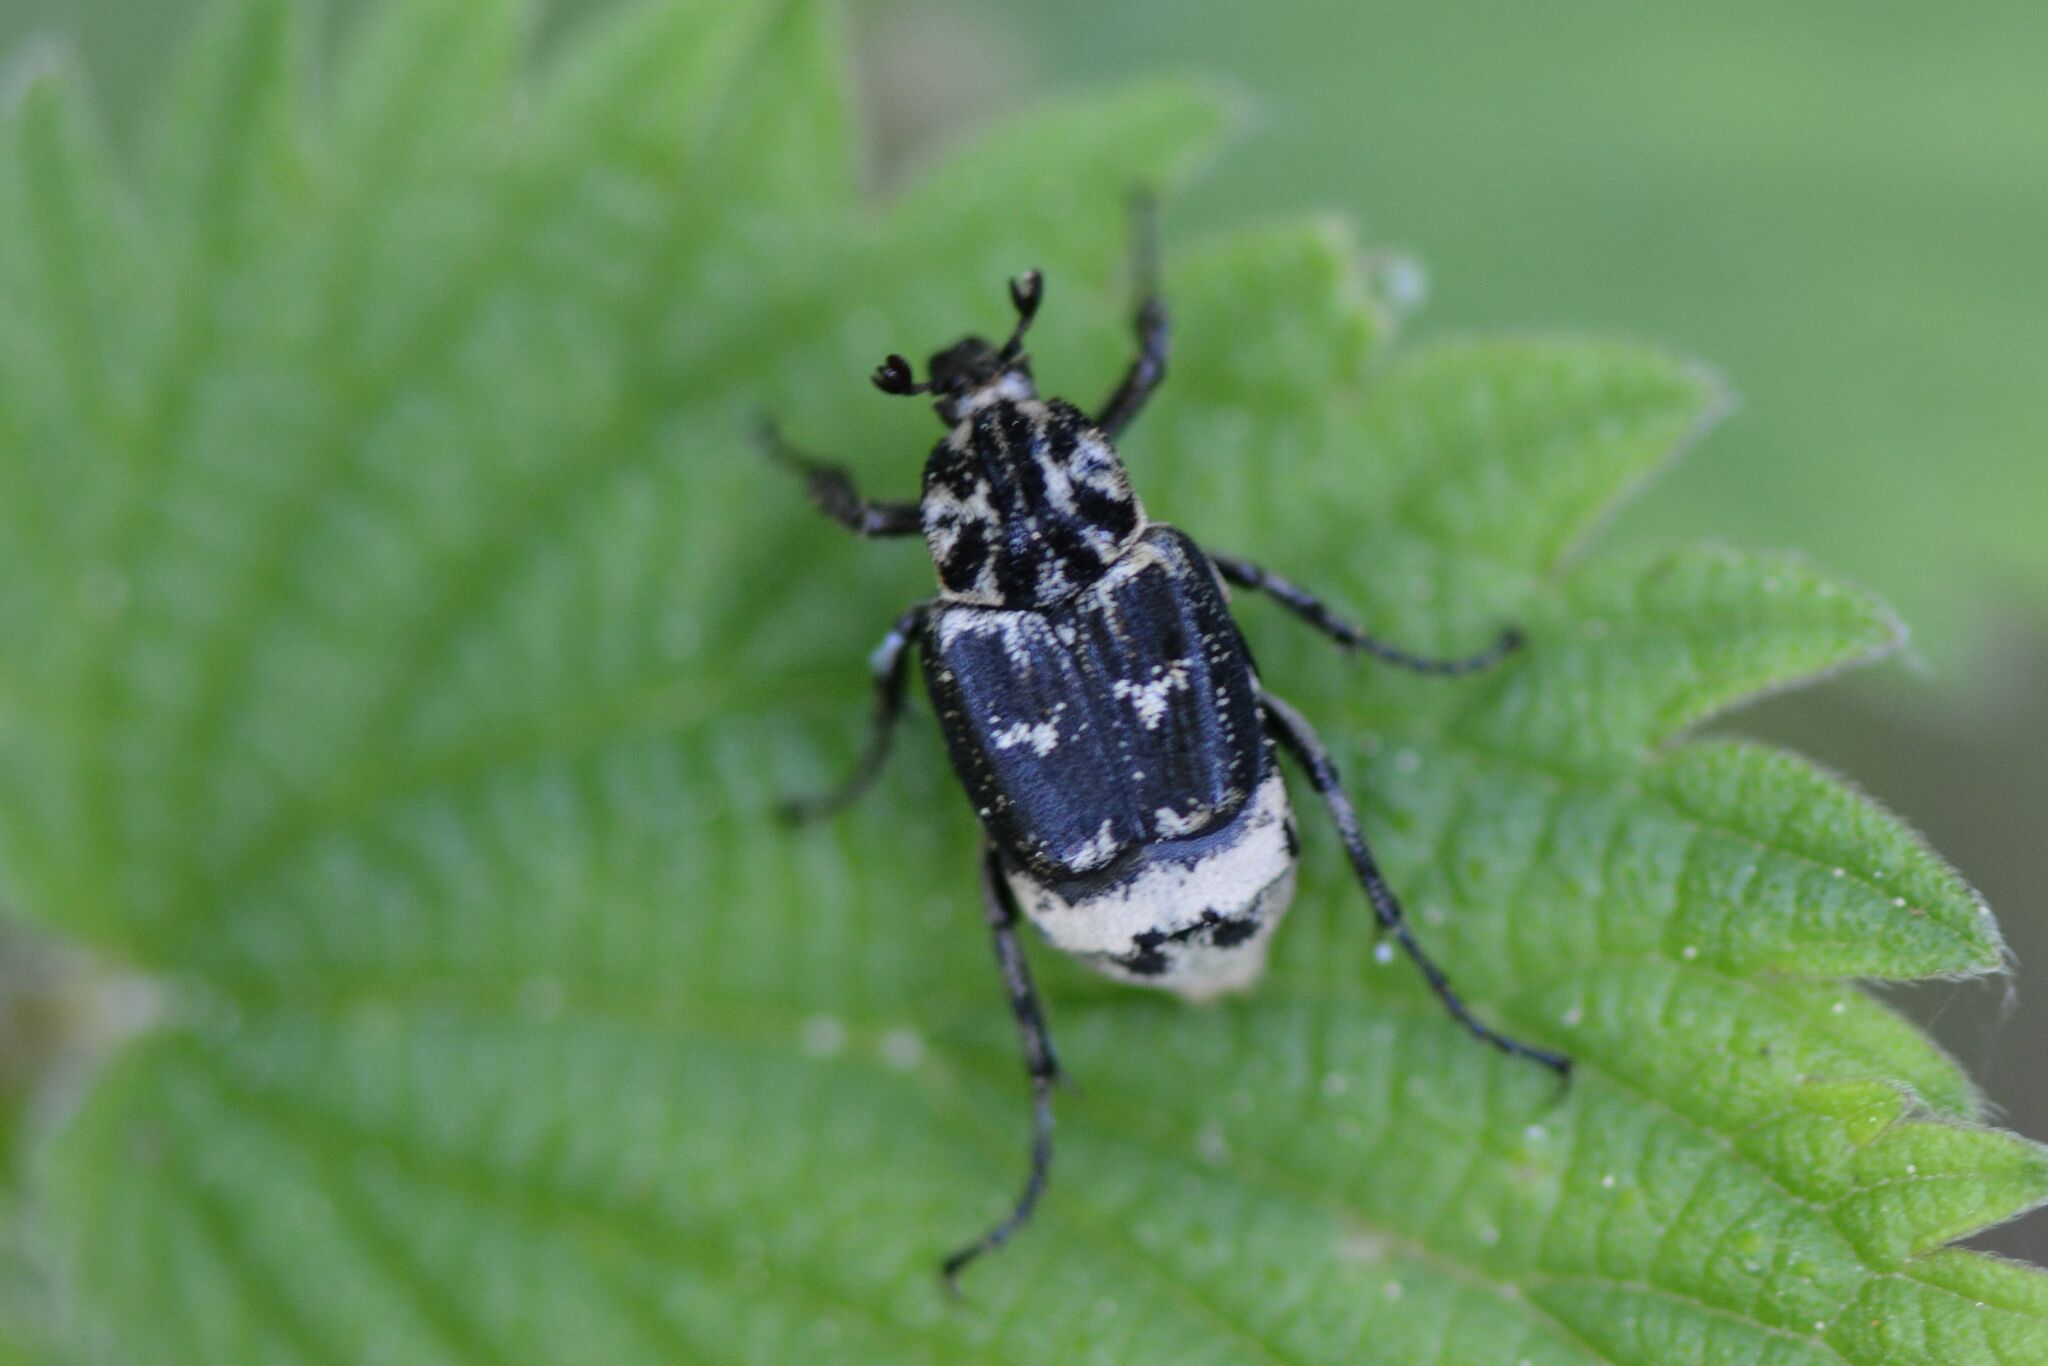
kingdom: Animalia
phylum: Arthropoda
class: Insecta
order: Coleoptera
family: Scarabaeidae
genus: Valgus
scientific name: Valgus hemipterus
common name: Bug flower chafer
